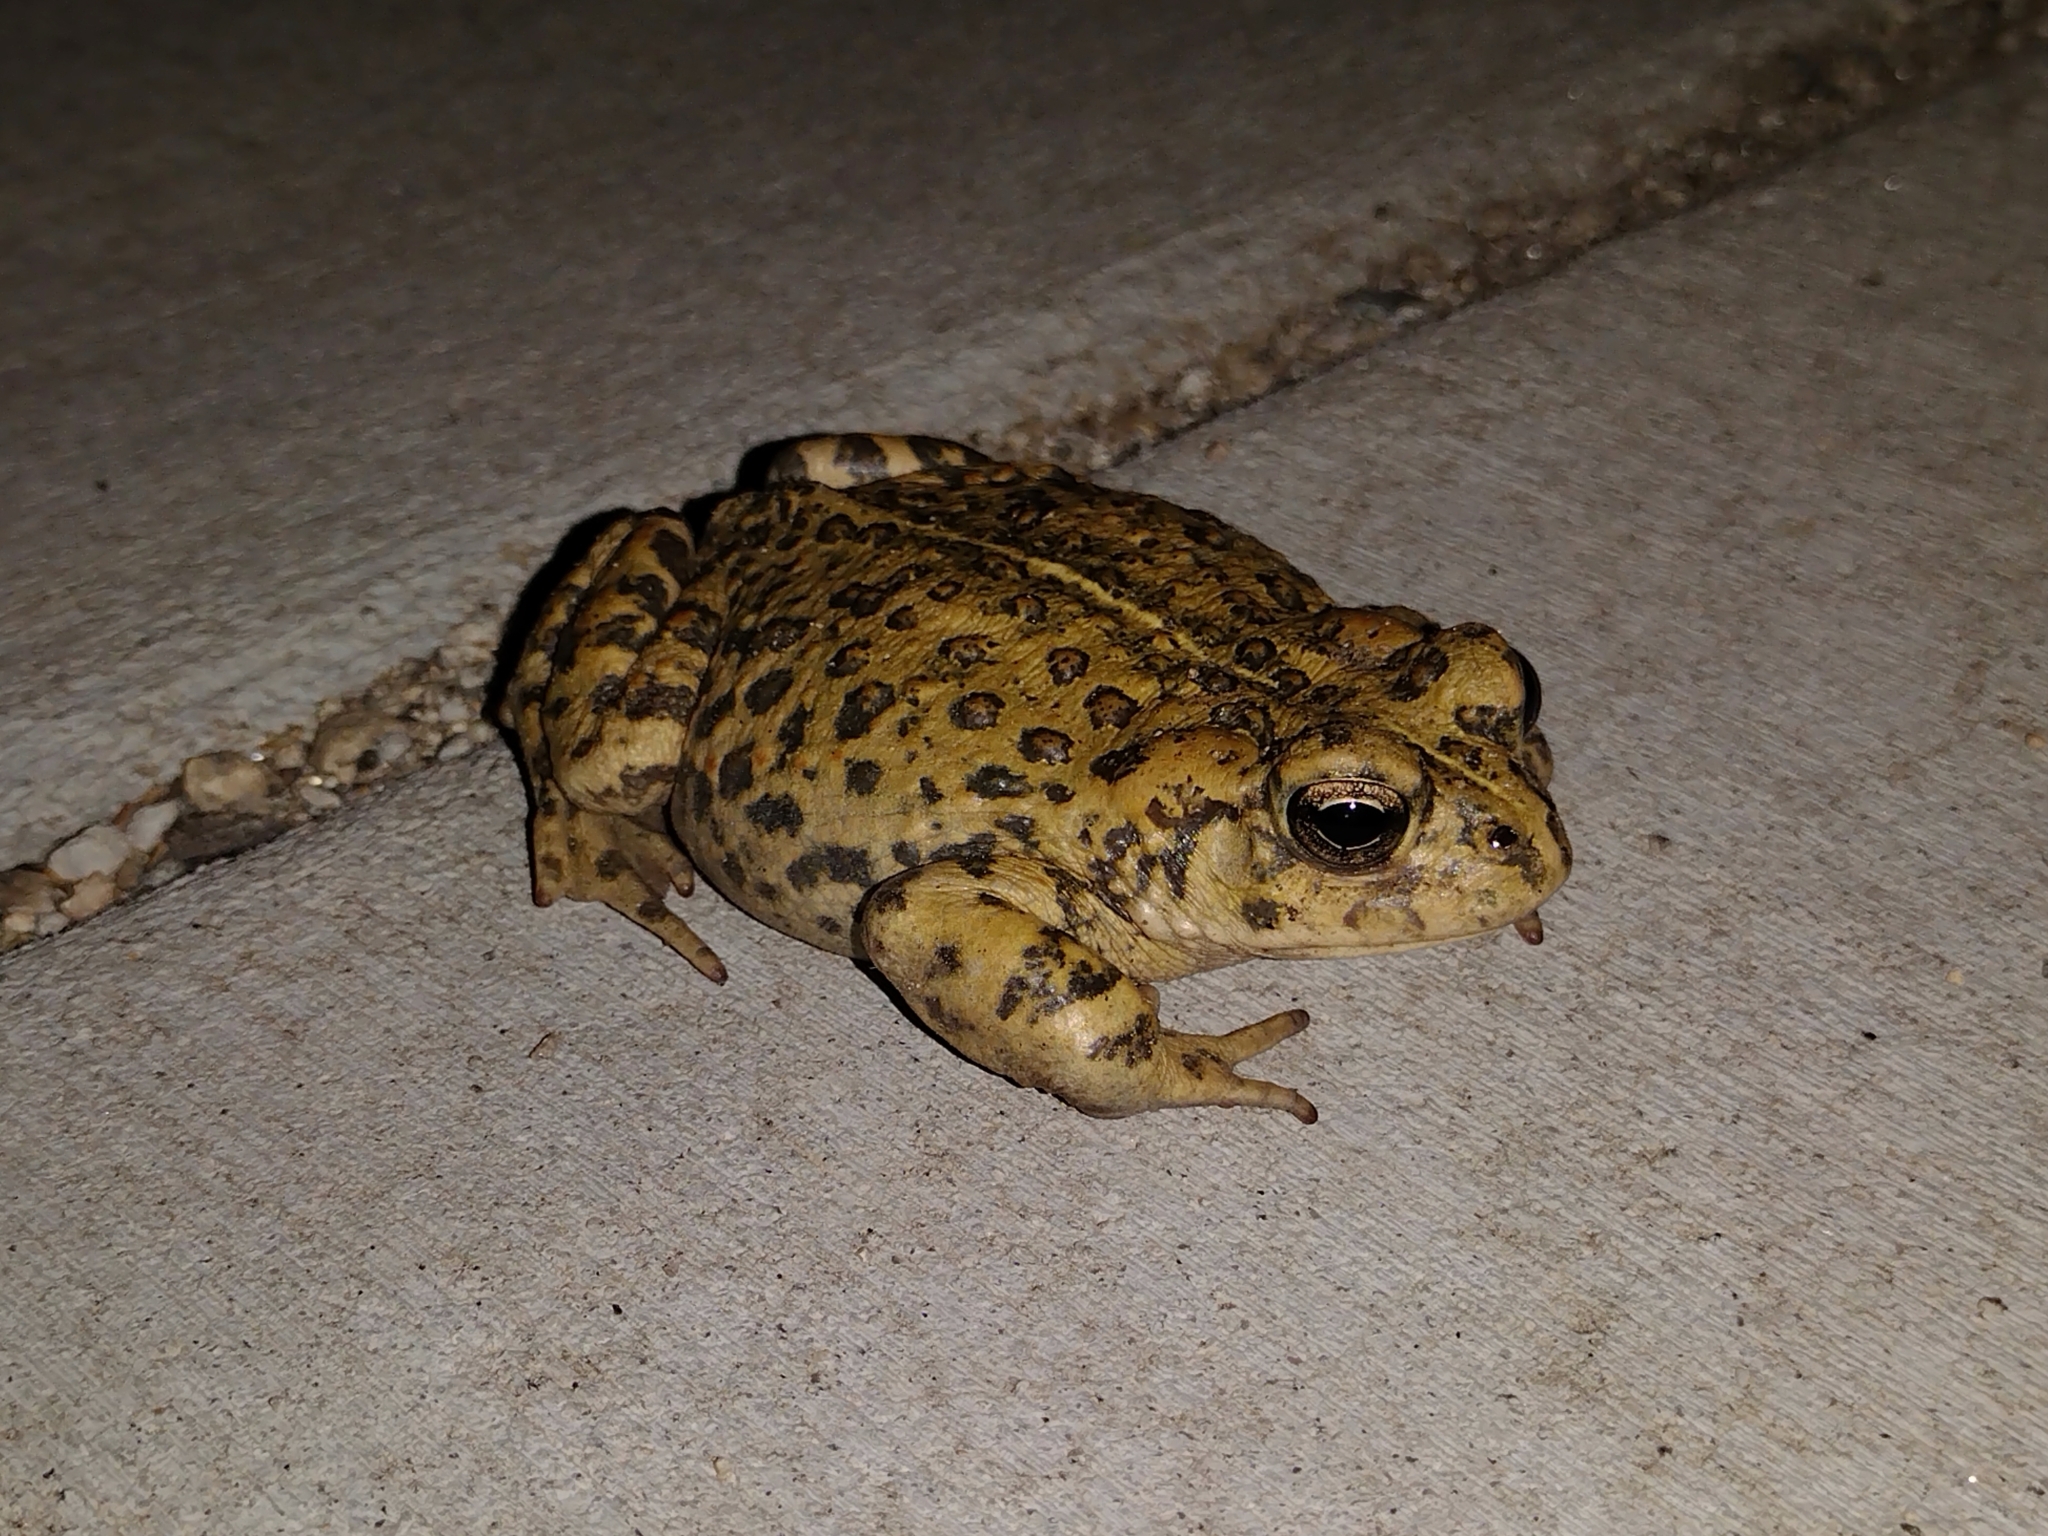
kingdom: Animalia
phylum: Chordata
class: Amphibia
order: Anura
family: Bufonidae
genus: Anaxyrus
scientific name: Anaxyrus boreas
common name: Western toad
